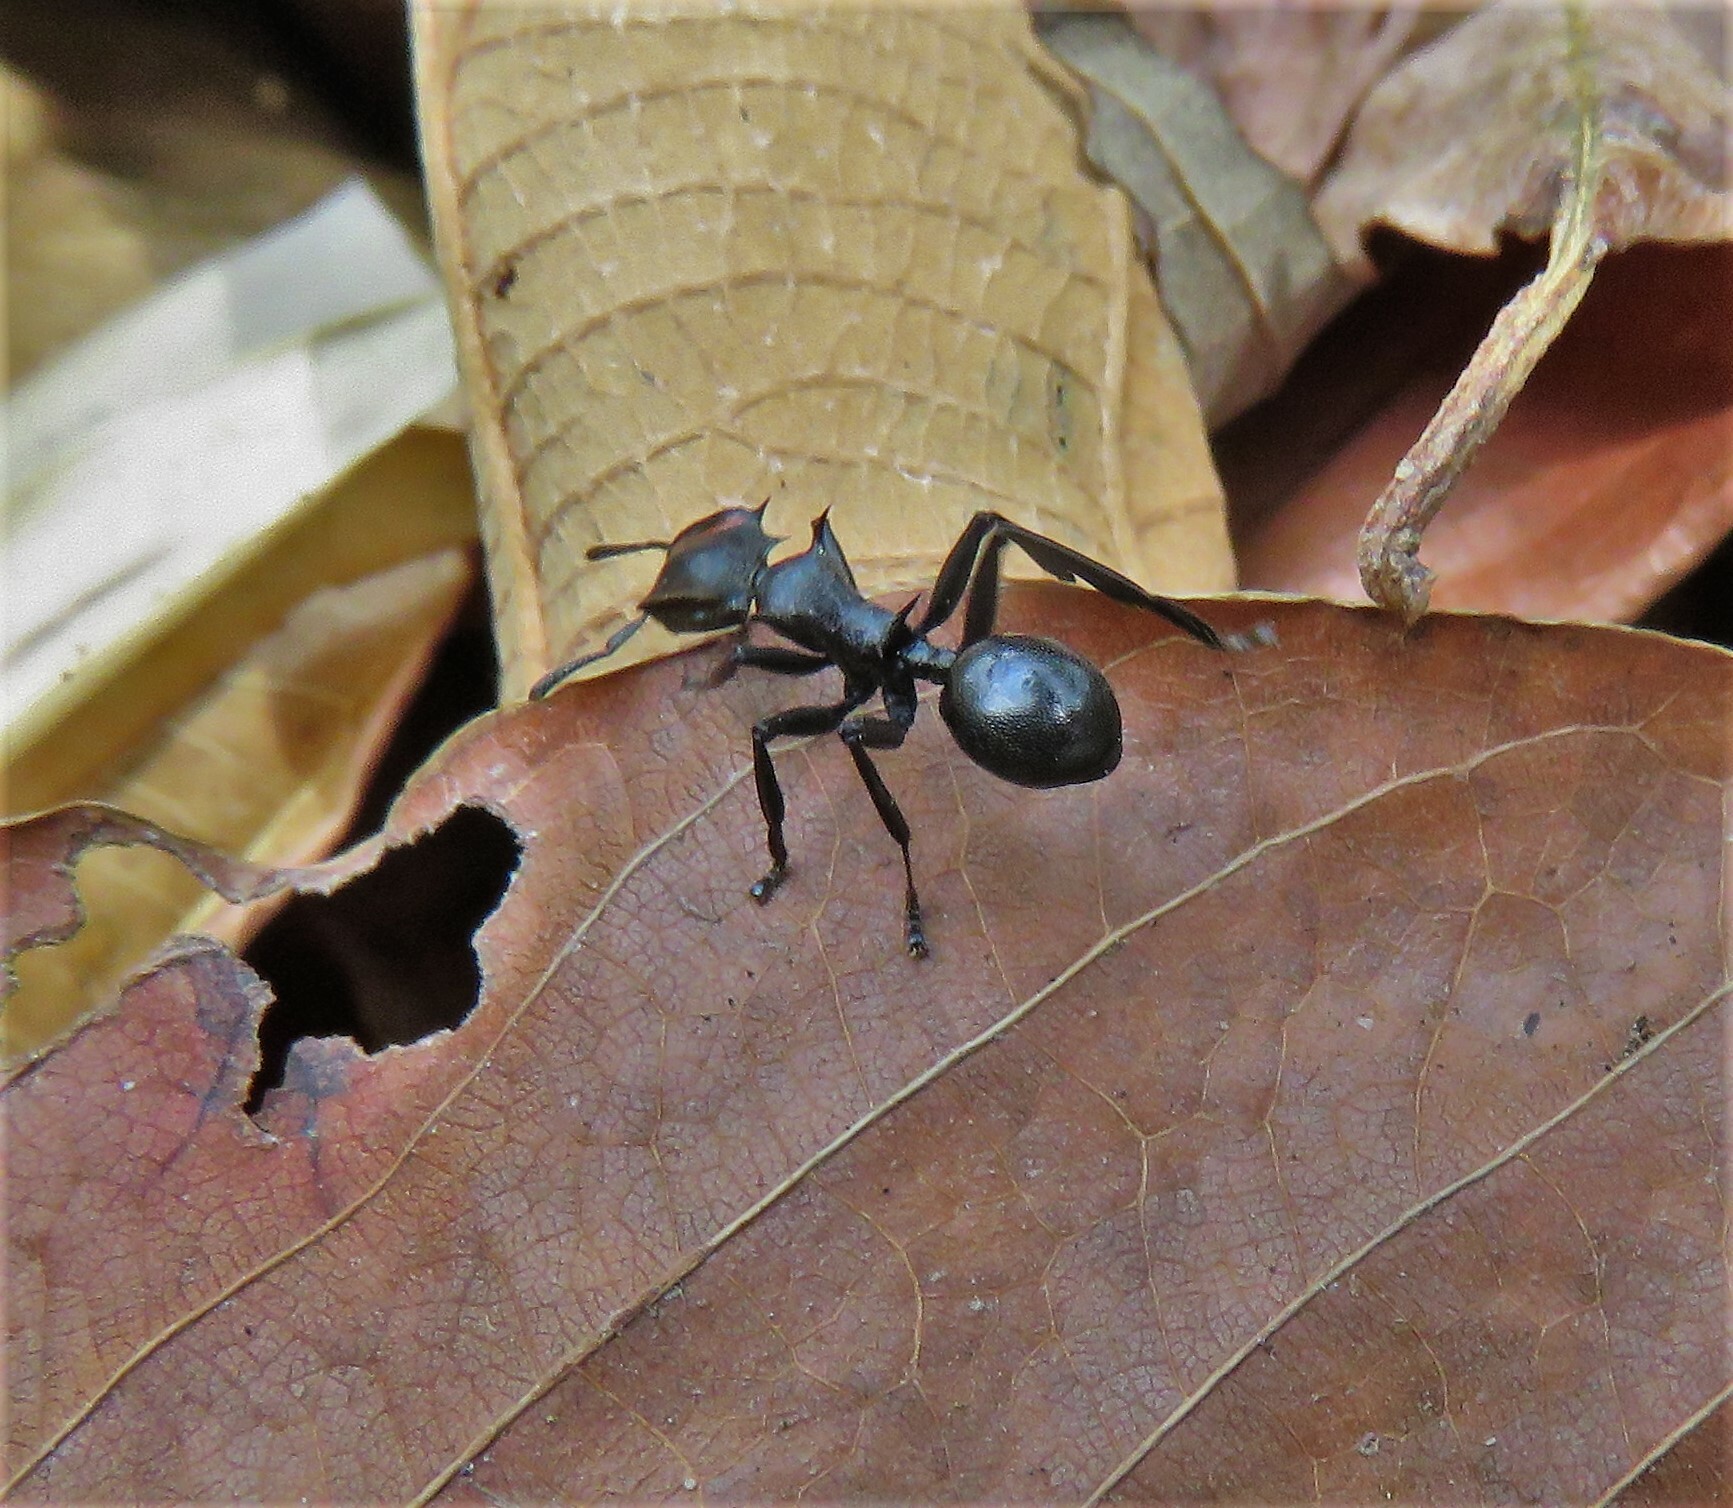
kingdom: Animalia
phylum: Arthropoda
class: Insecta
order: Hymenoptera
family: Formicidae
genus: Cephalotes
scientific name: Cephalotes atratus
